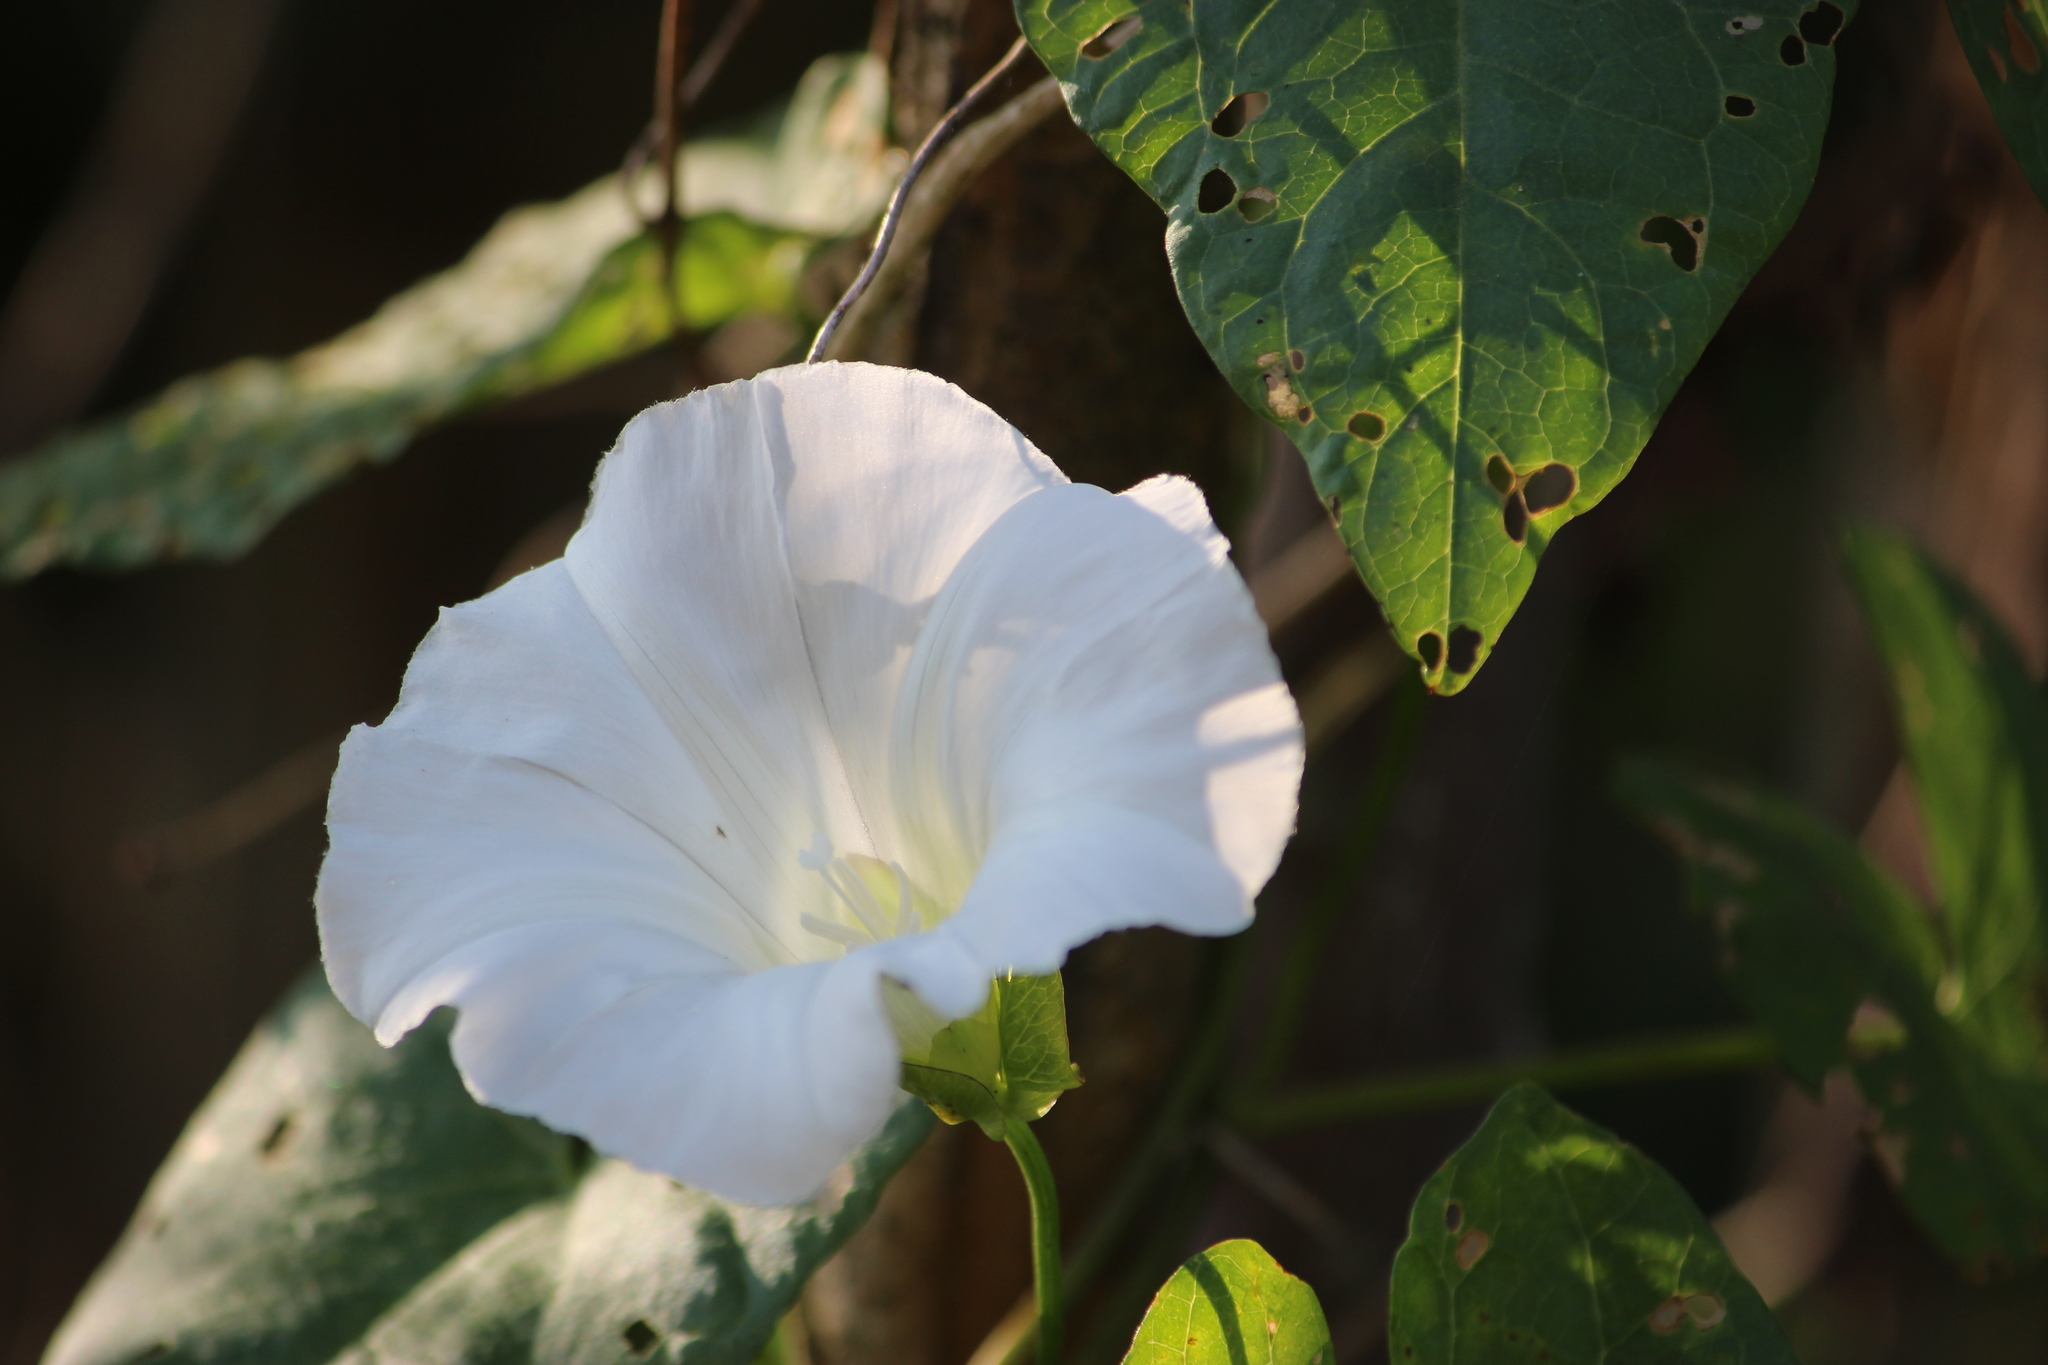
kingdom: Plantae
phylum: Tracheophyta
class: Magnoliopsida
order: Solanales
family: Convolvulaceae
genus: Calystegia
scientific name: Calystegia sepium
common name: Hedge bindweed
